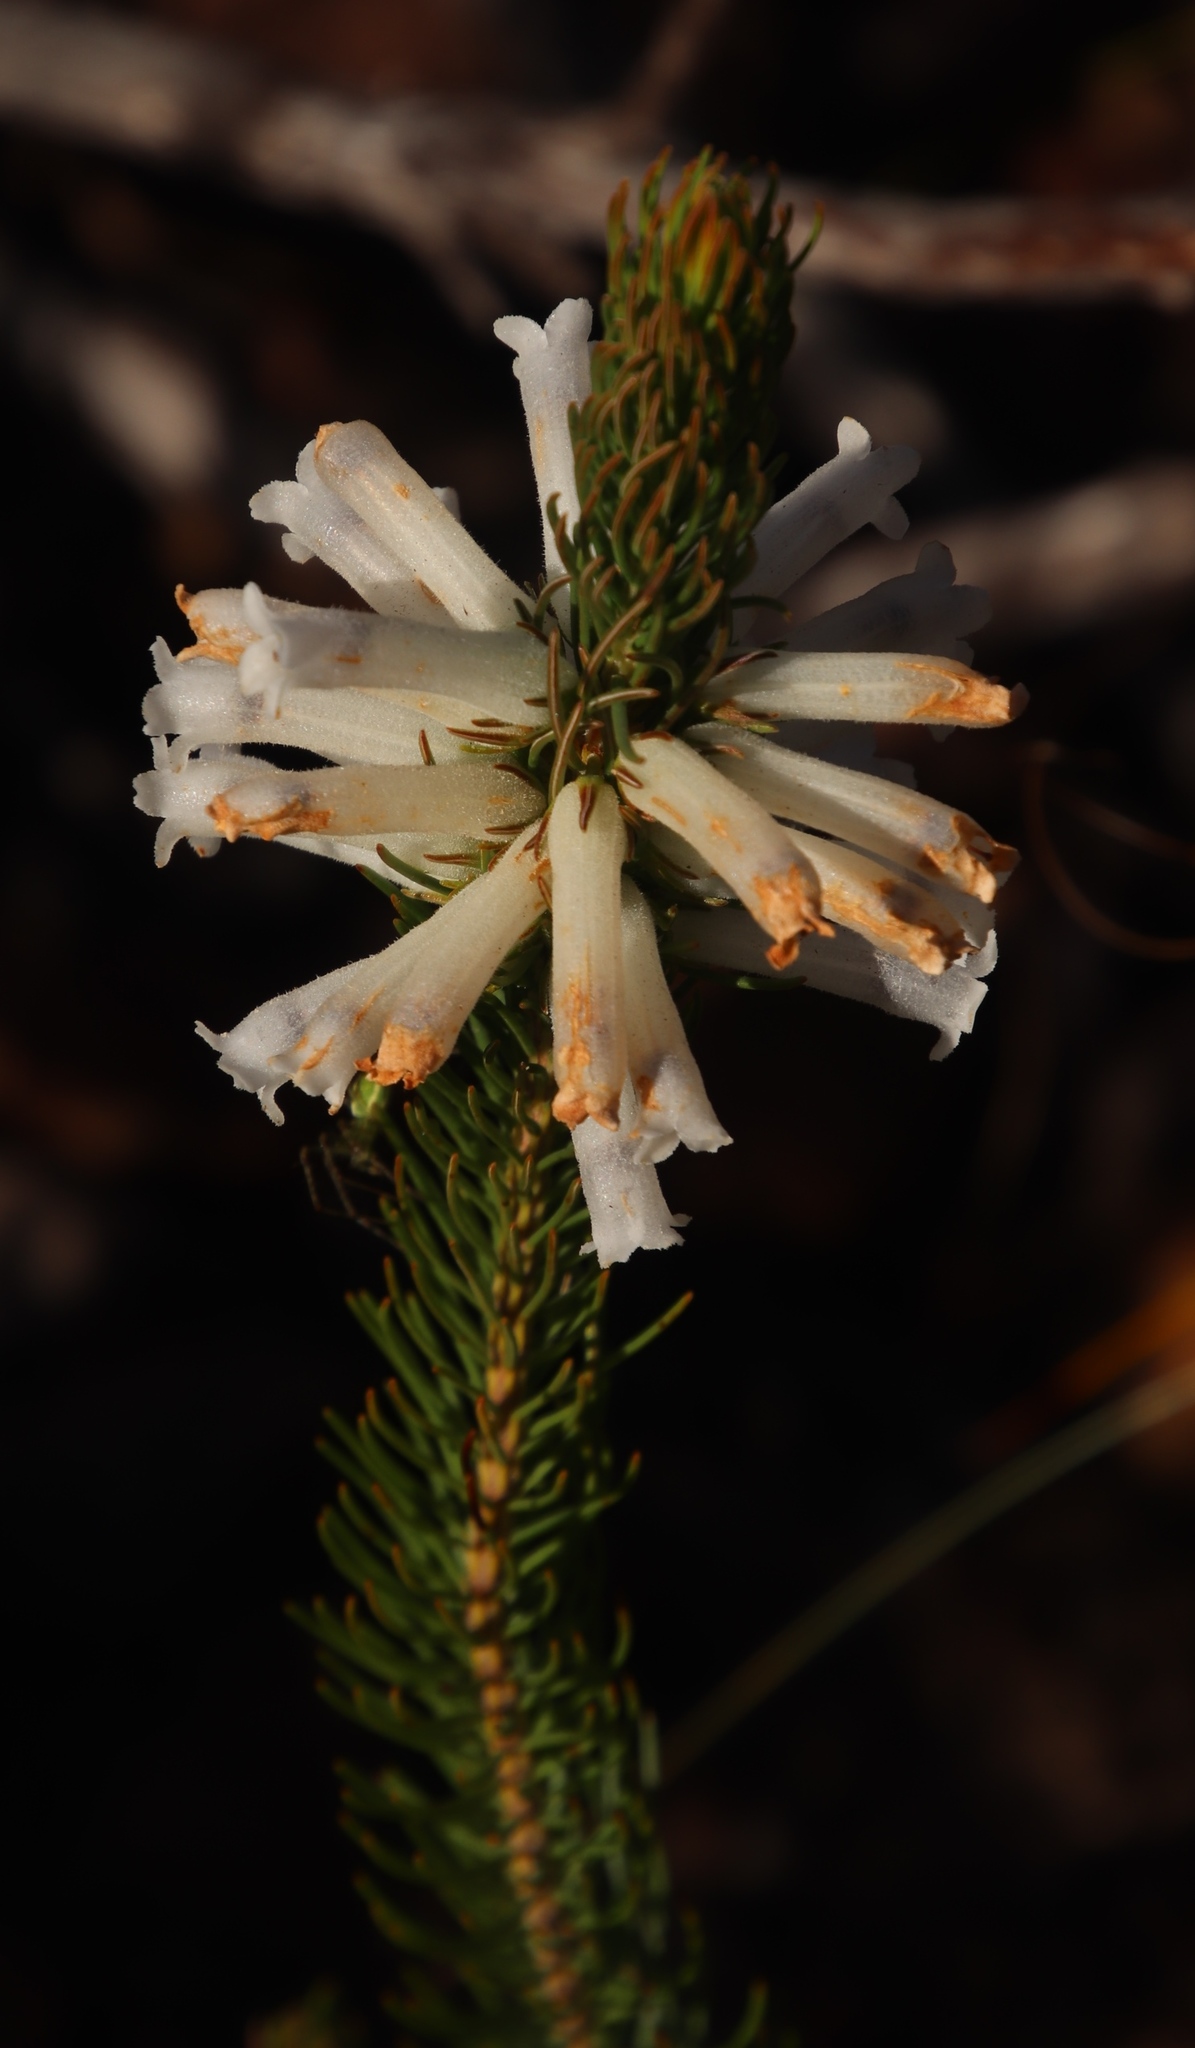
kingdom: Plantae
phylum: Tracheophyta
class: Magnoliopsida
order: Ericales
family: Ericaceae
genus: Erica
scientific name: Erica viscaria
